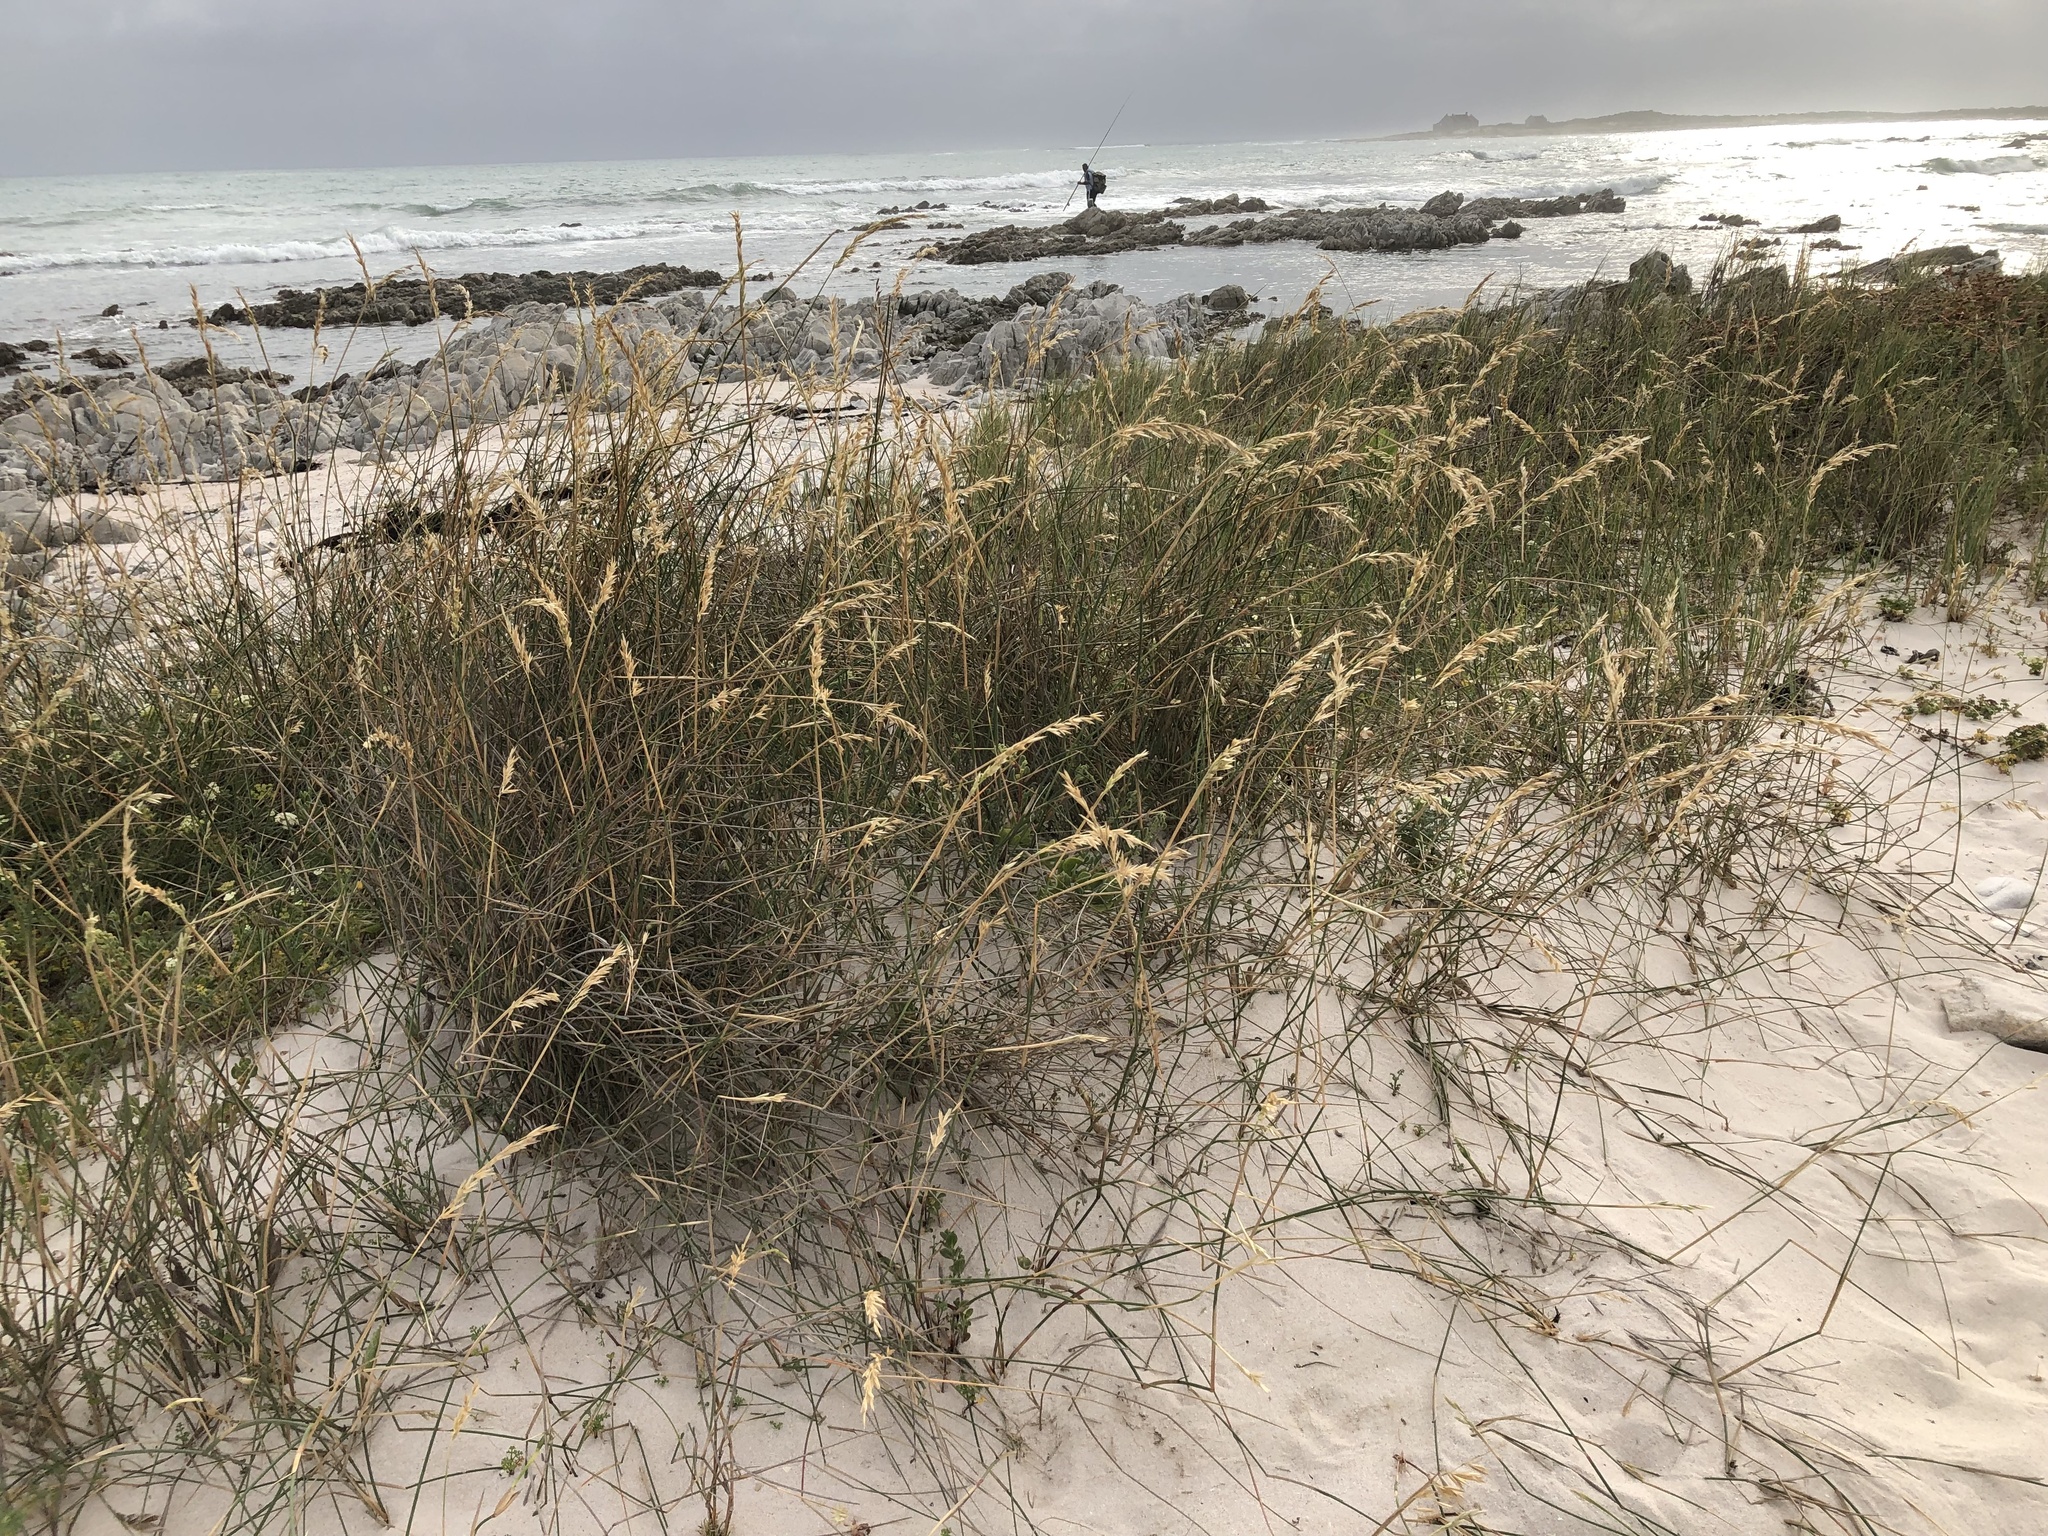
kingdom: Plantae
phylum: Tracheophyta
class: Liliopsida
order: Poales
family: Poaceae
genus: Thinopyrum
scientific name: Thinopyrum distichum
